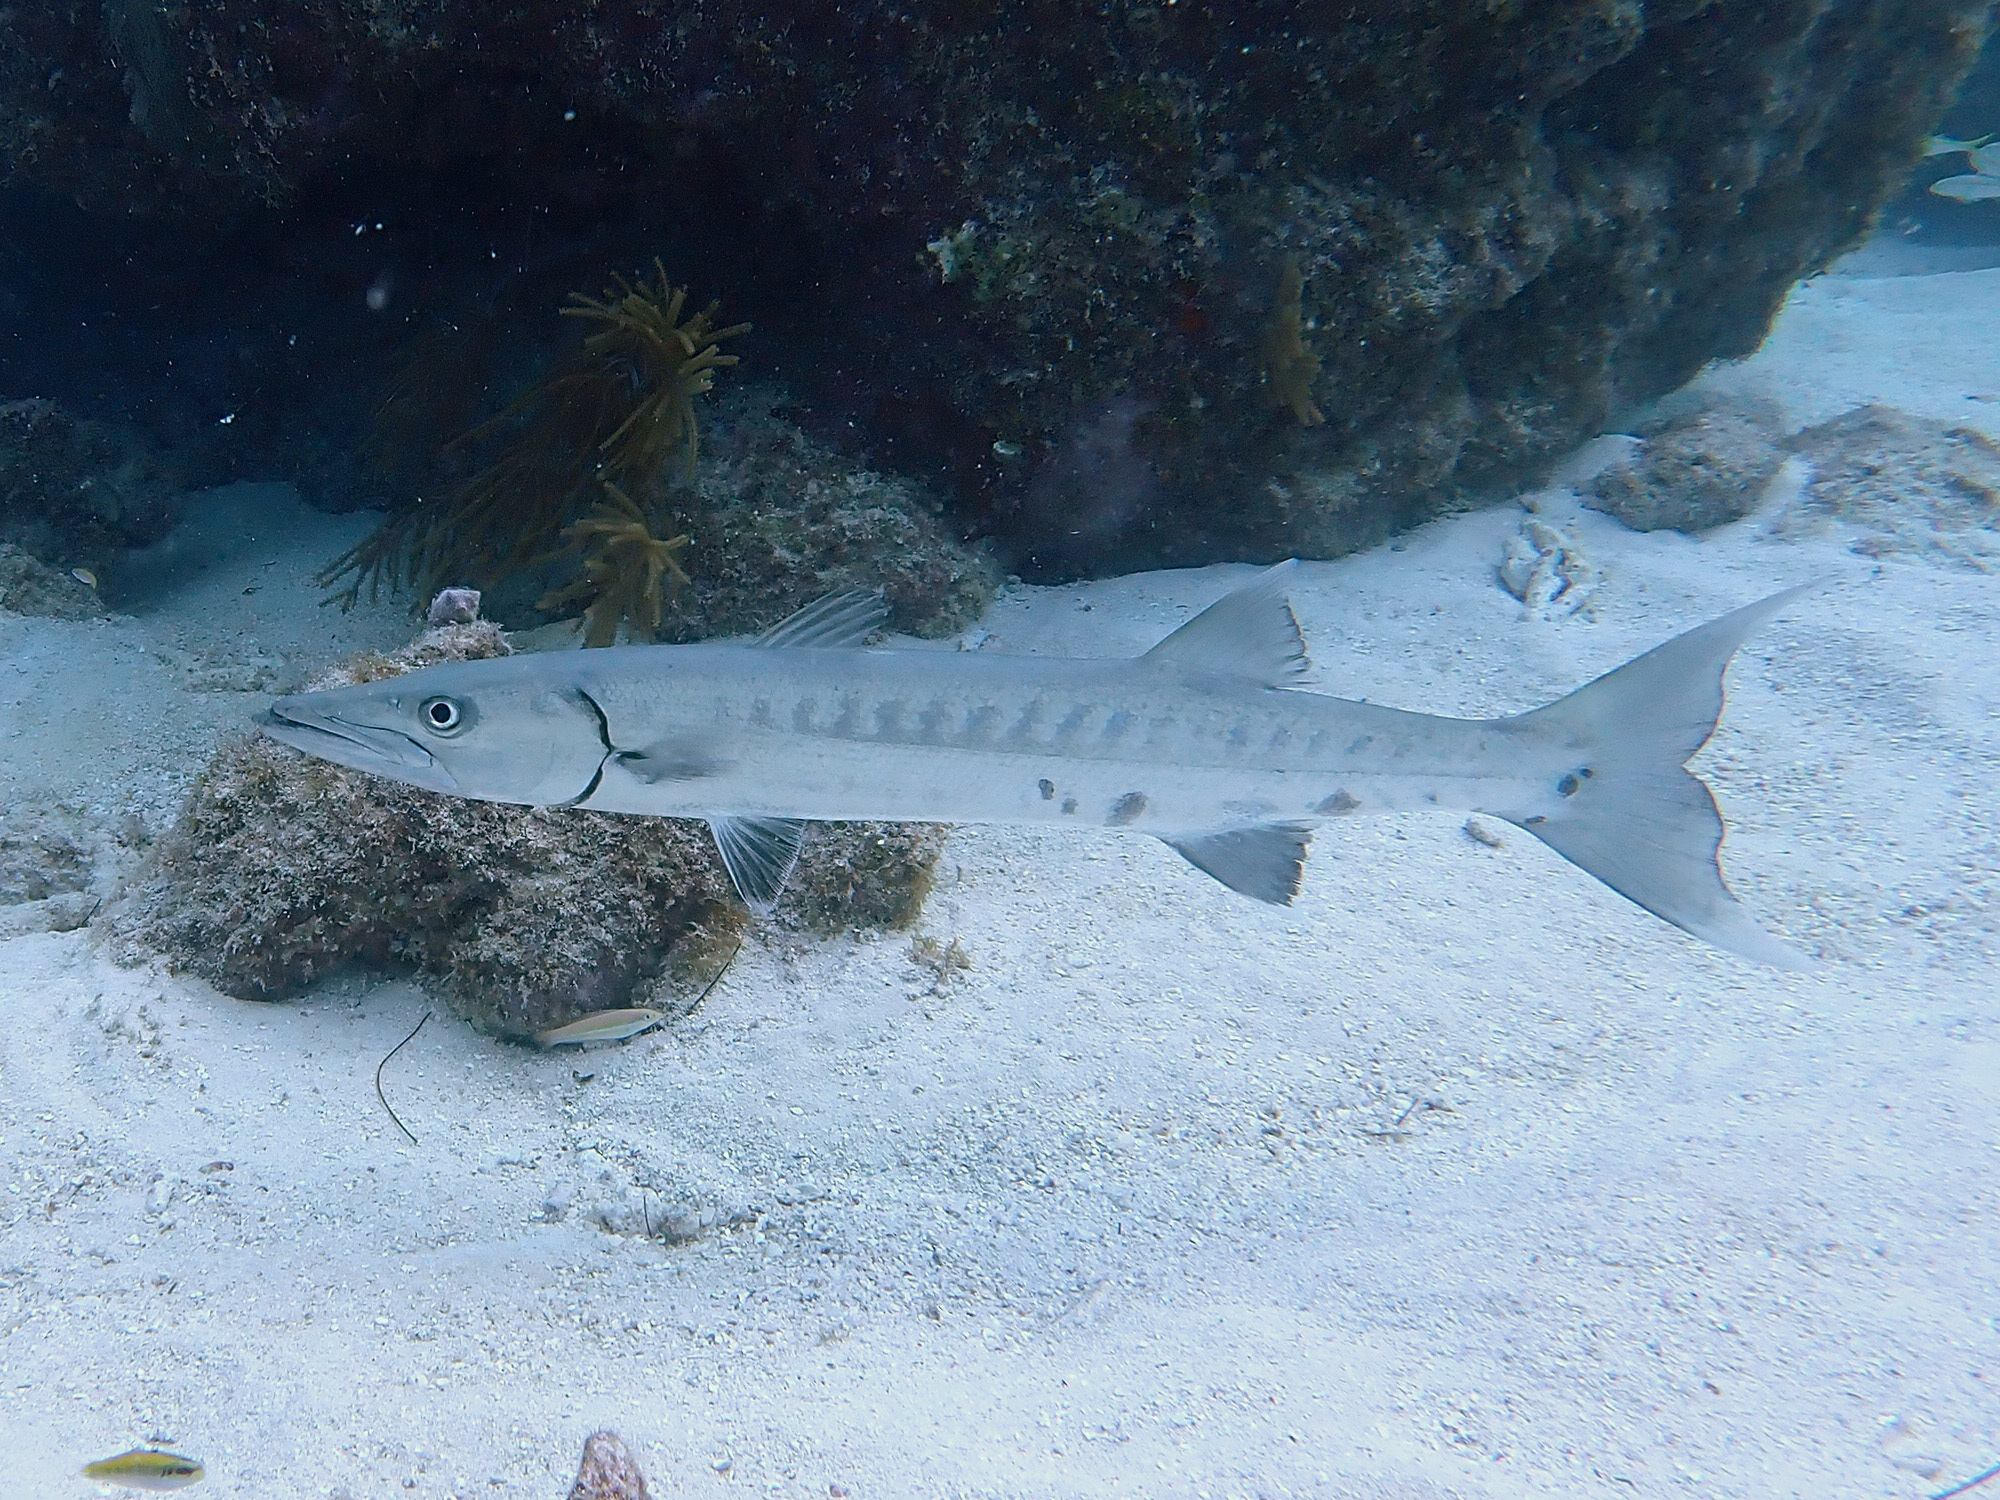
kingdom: Animalia
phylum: Chordata
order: Perciformes
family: Sphyraenidae
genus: Sphyraena
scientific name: Sphyraena barracuda
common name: Great barracuda
